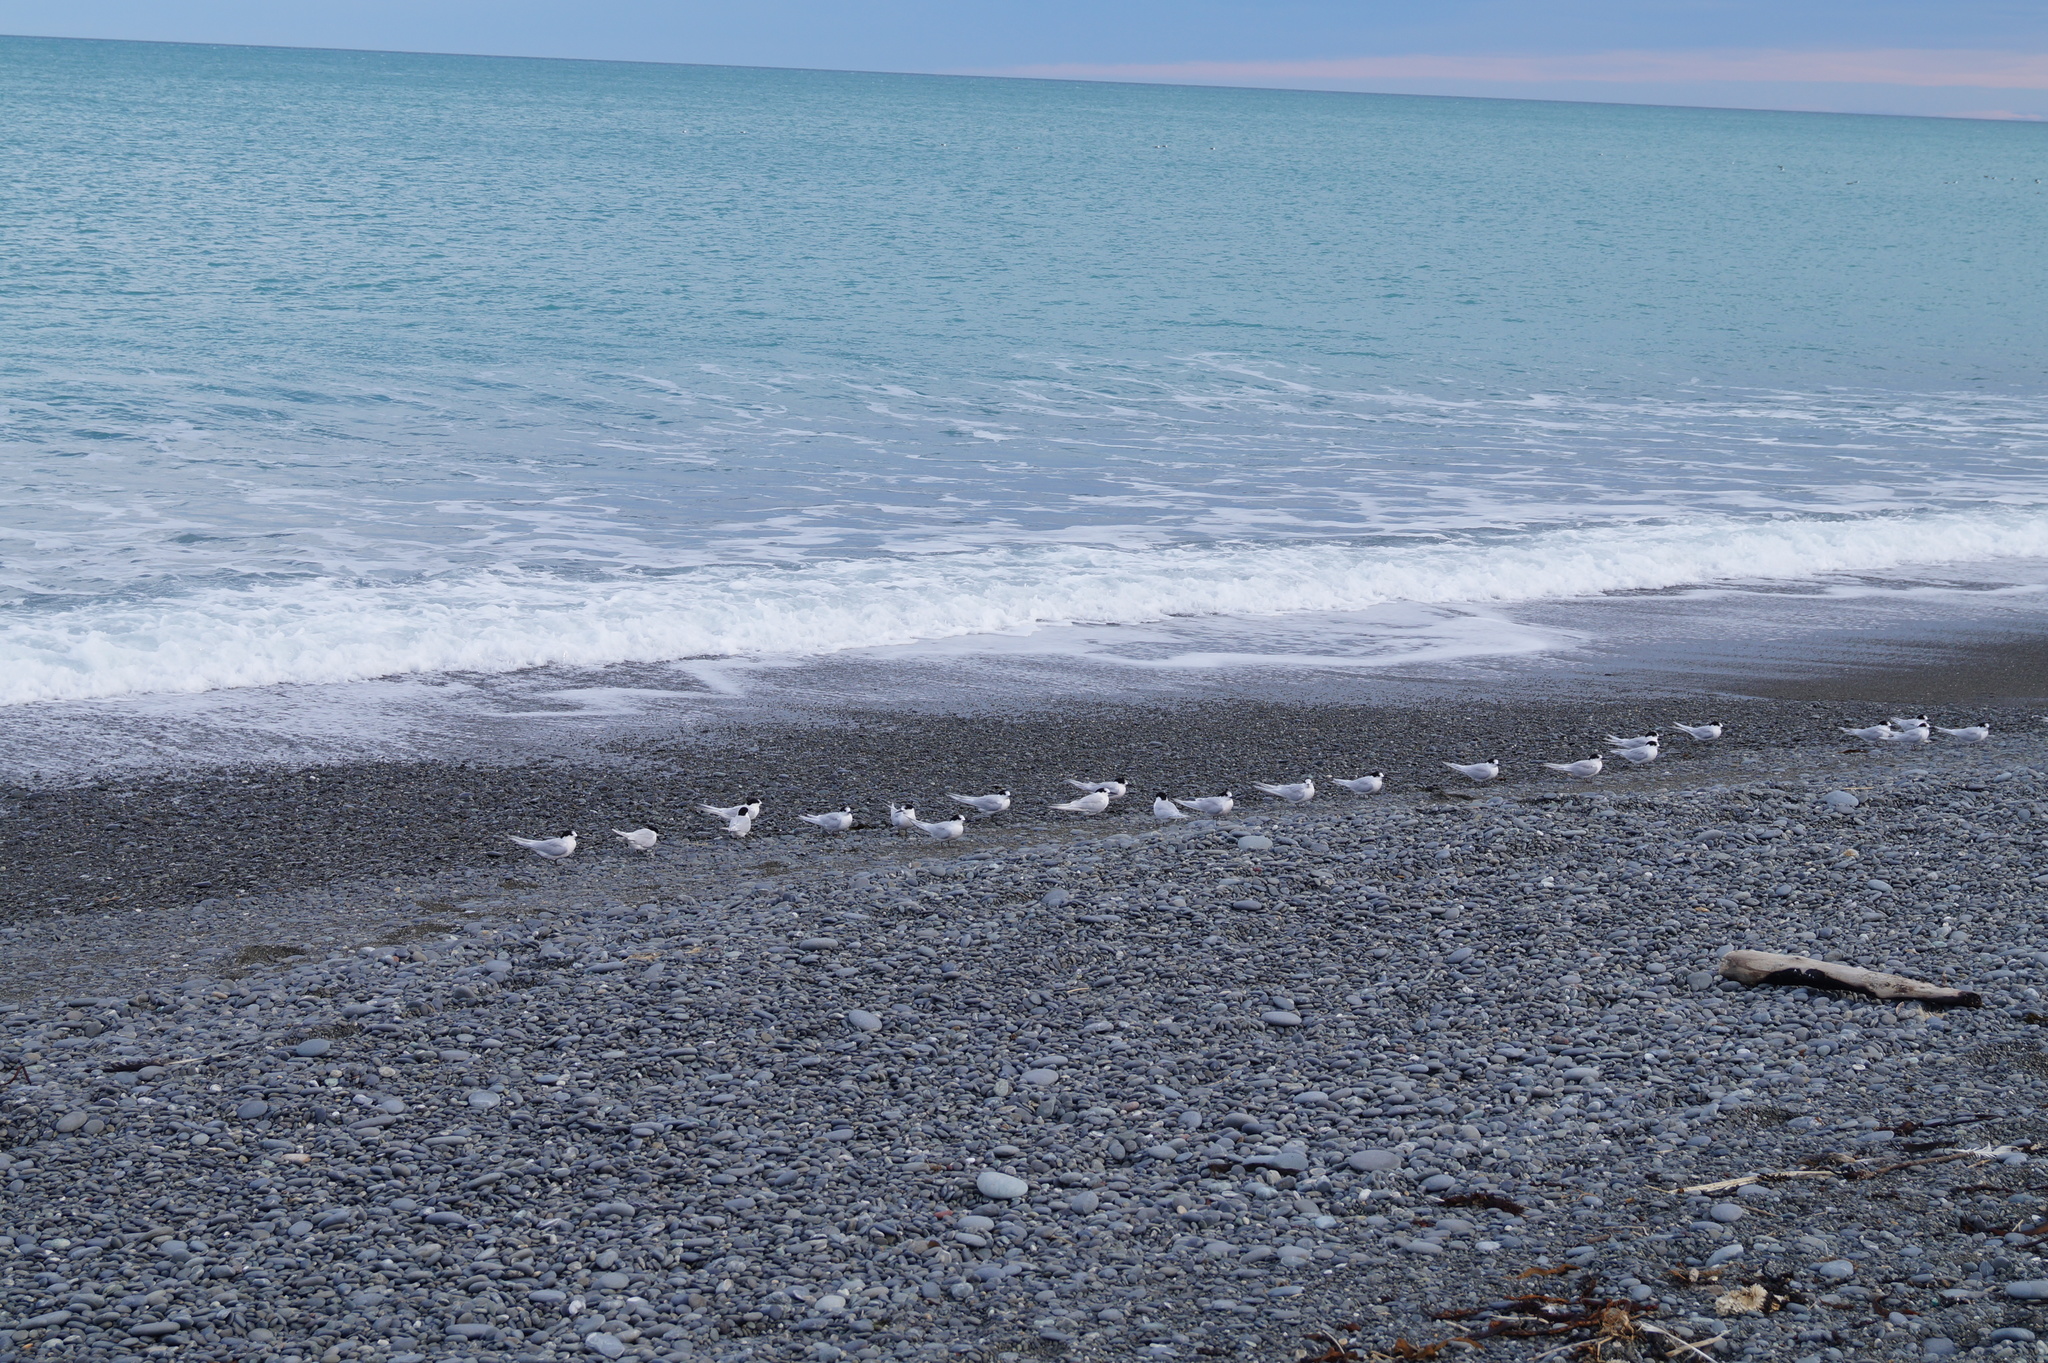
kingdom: Animalia
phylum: Chordata
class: Aves
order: Charadriiformes
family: Laridae
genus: Sterna
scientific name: Sterna striata
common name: White-fronted tern
